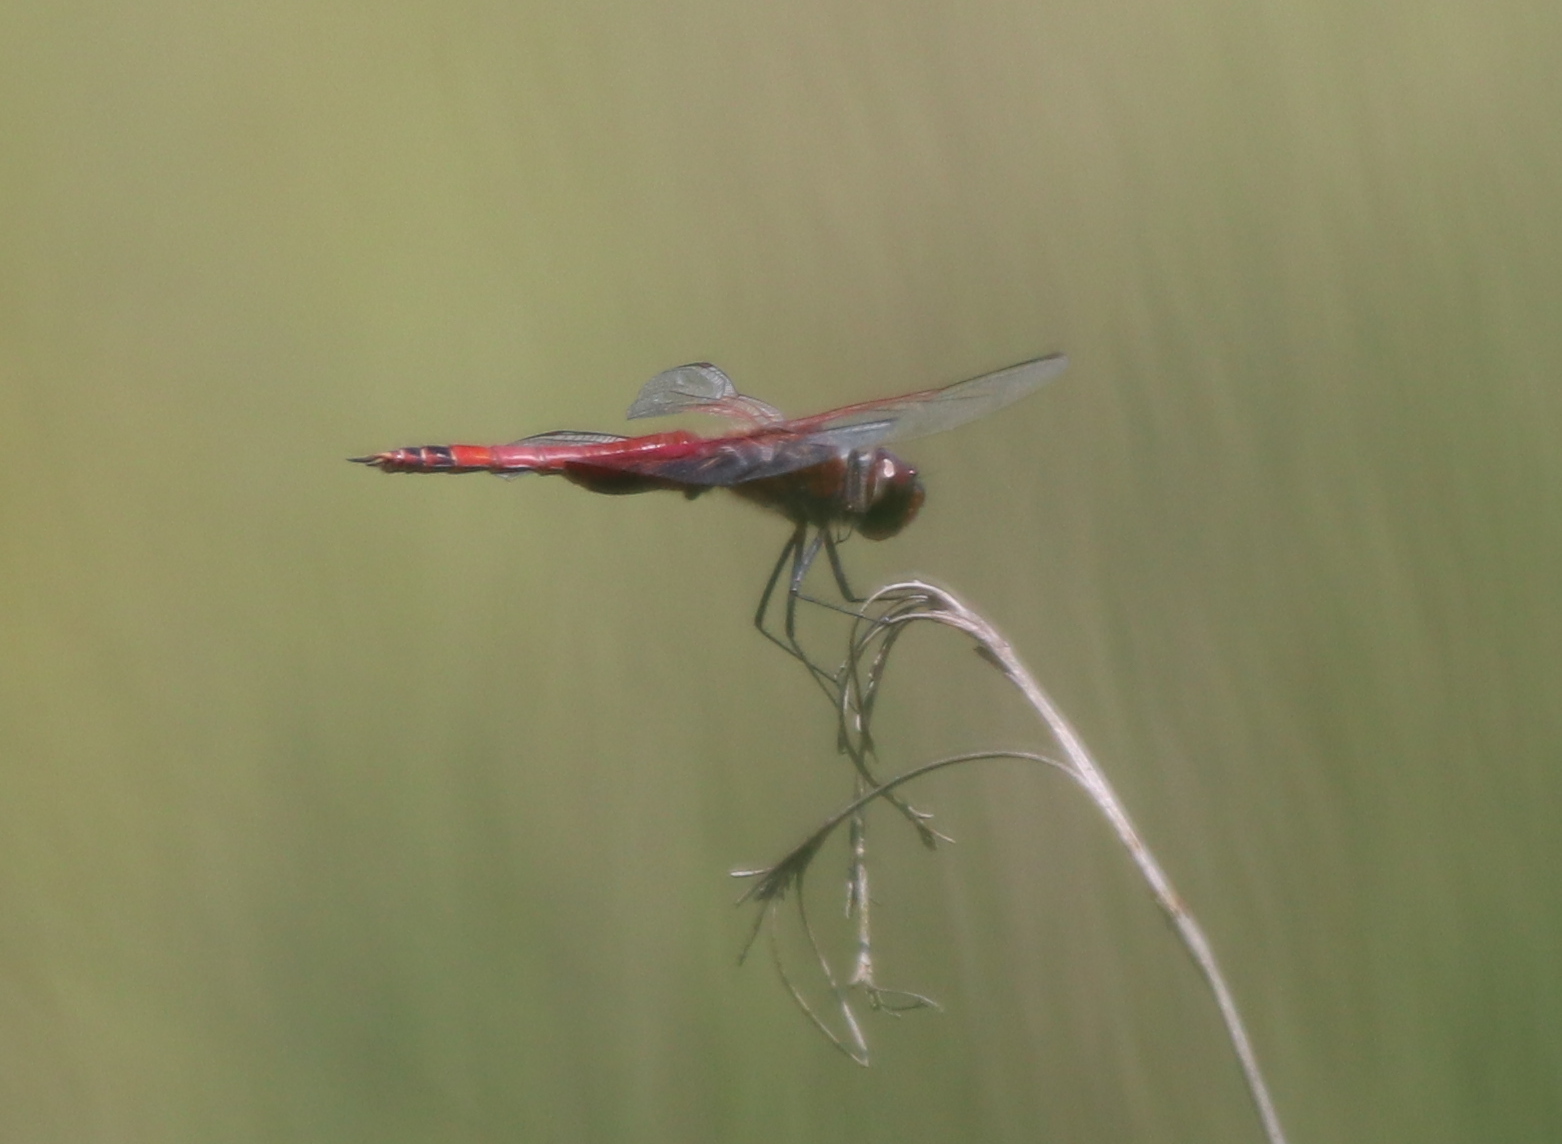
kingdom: Animalia
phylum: Arthropoda
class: Insecta
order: Odonata
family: Libellulidae
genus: Tramea
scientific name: Tramea carolina
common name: Carolina saddlebags
